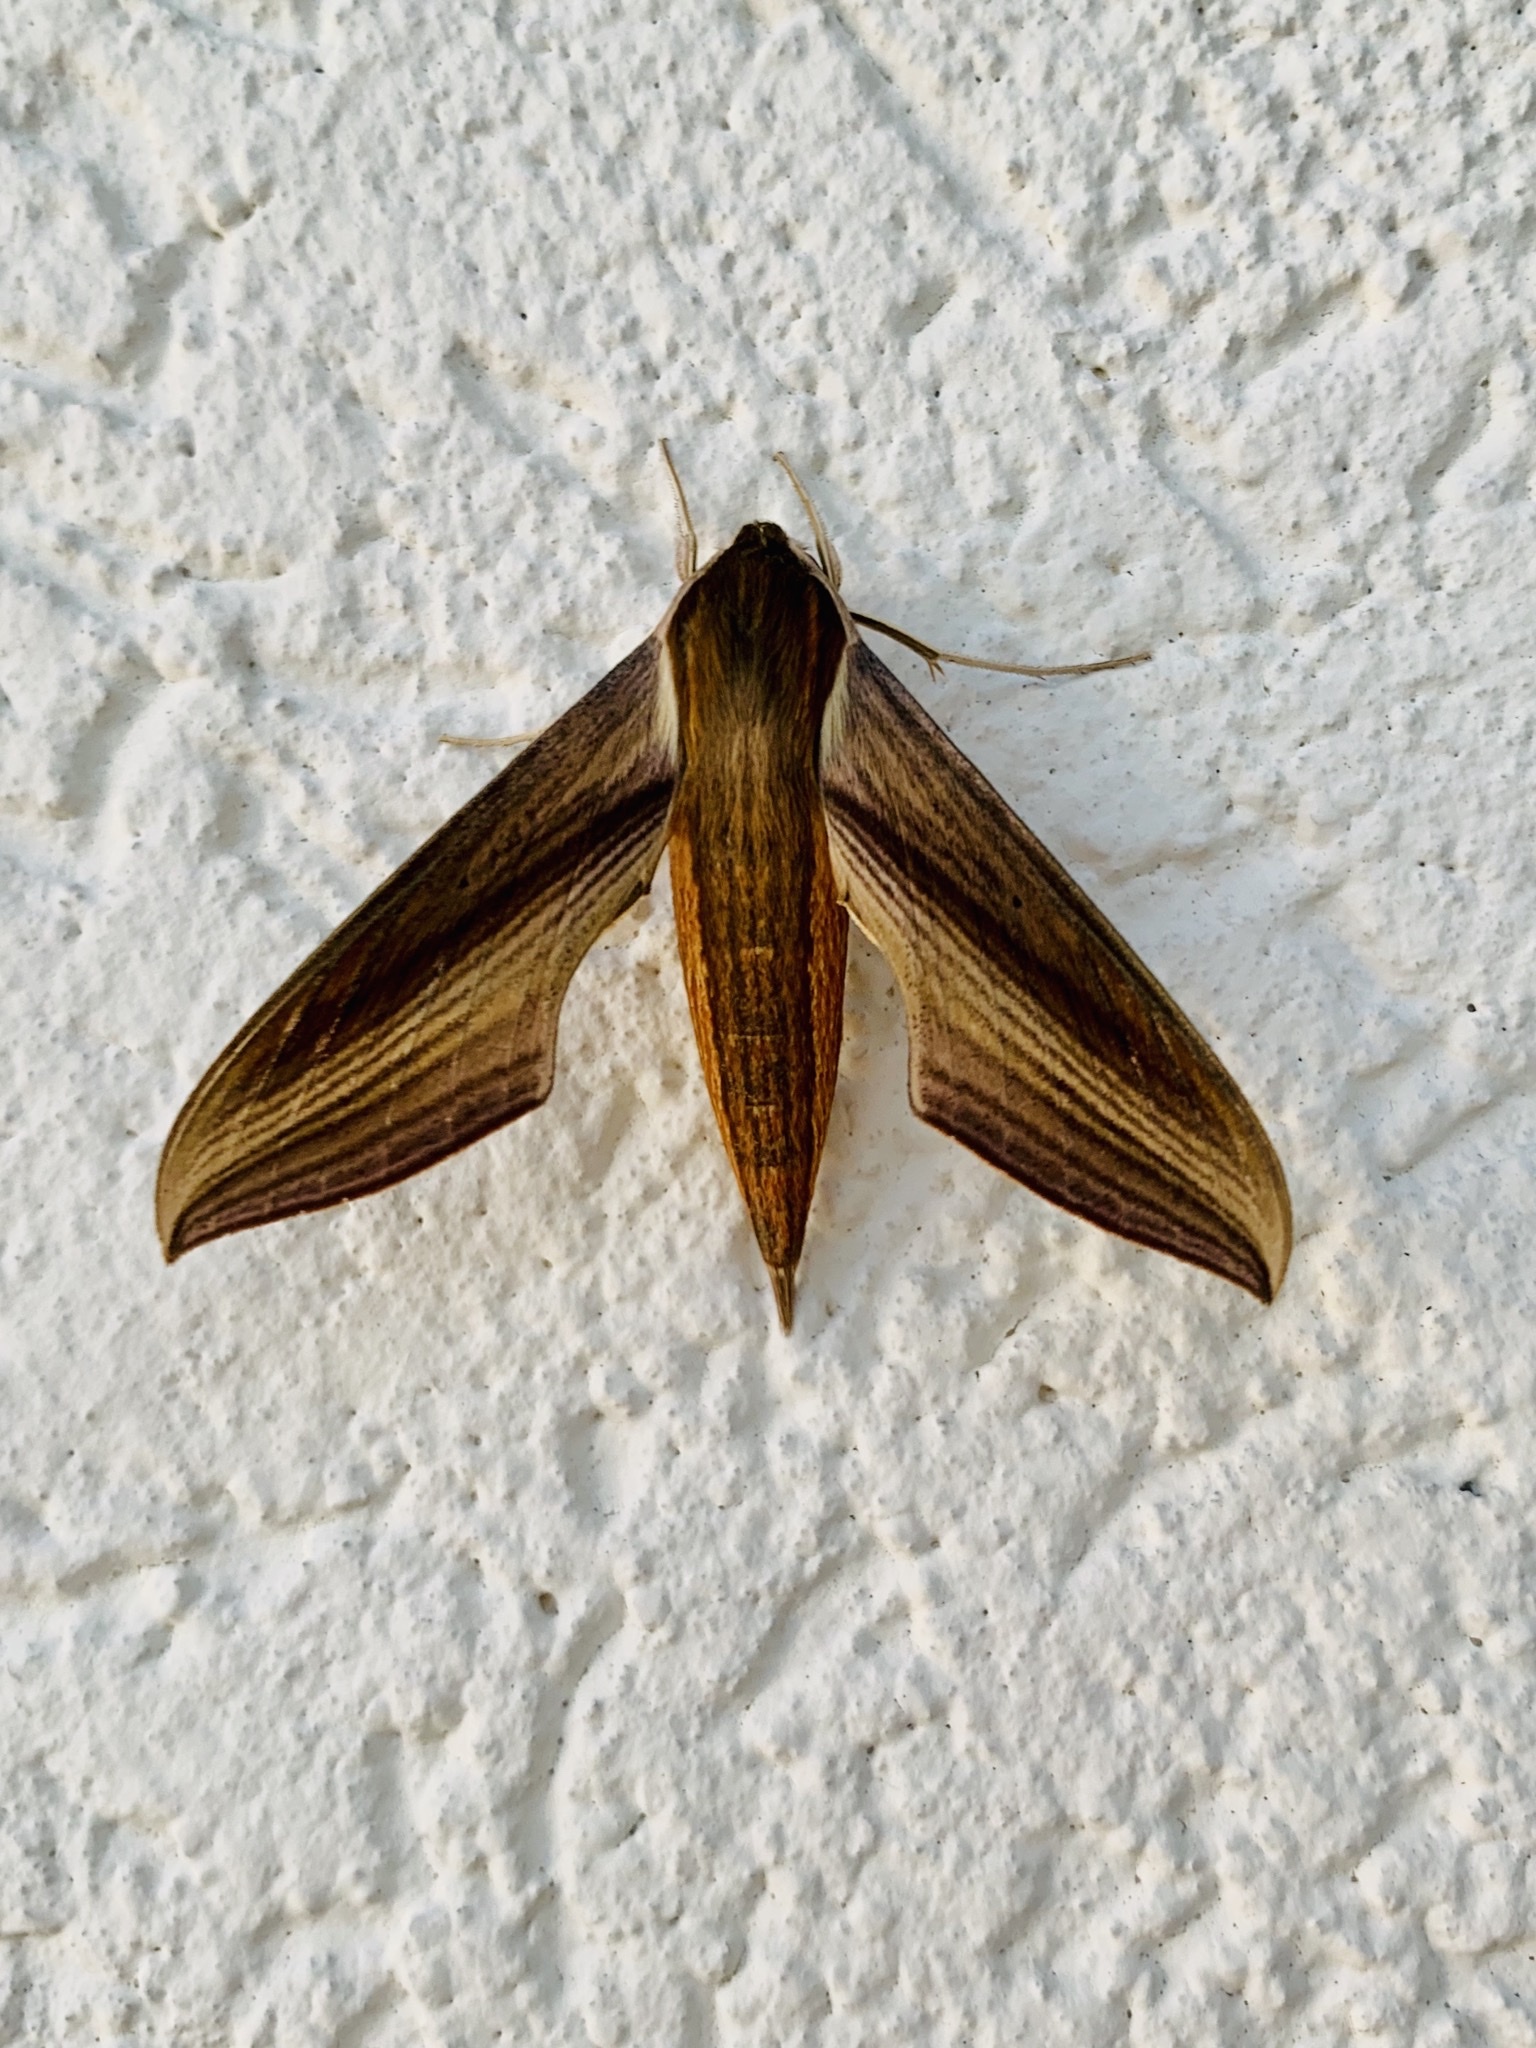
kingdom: Animalia
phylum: Arthropoda
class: Insecta
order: Lepidoptera
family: Sphingidae
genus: Xylophanes
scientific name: Xylophanes tersa
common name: Tersa sphinx
